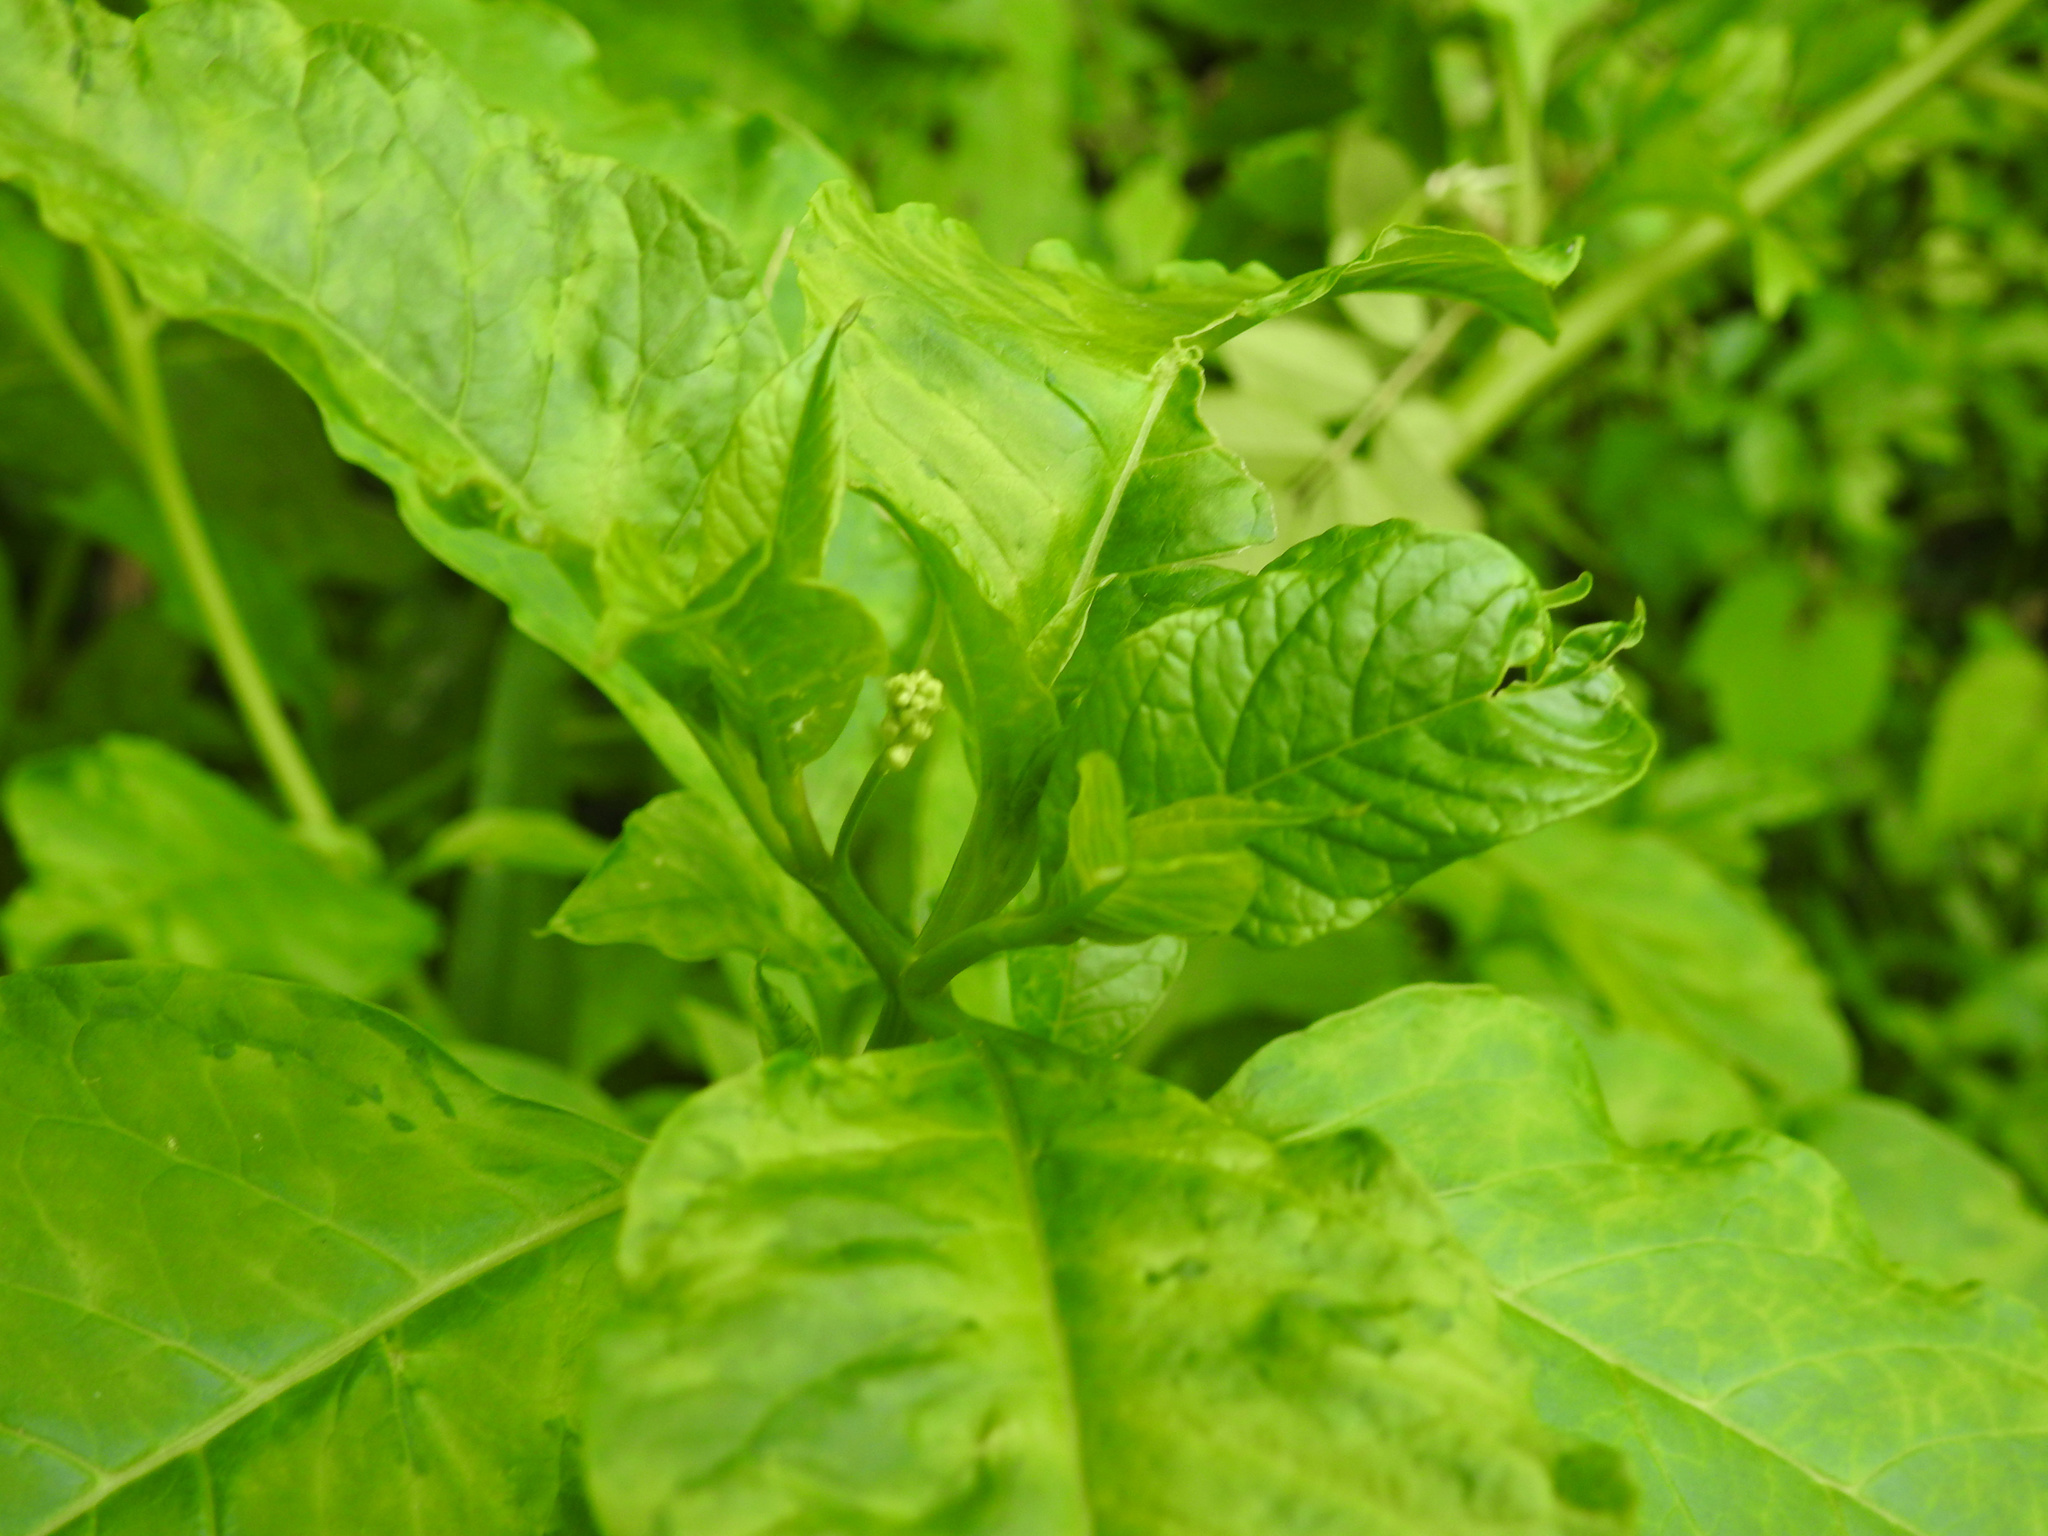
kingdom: Plantae
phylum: Tracheophyta
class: Magnoliopsida
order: Caryophyllales
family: Phytolaccaceae
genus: Phytolacca
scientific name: Phytolacca americana
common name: American pokeweed
